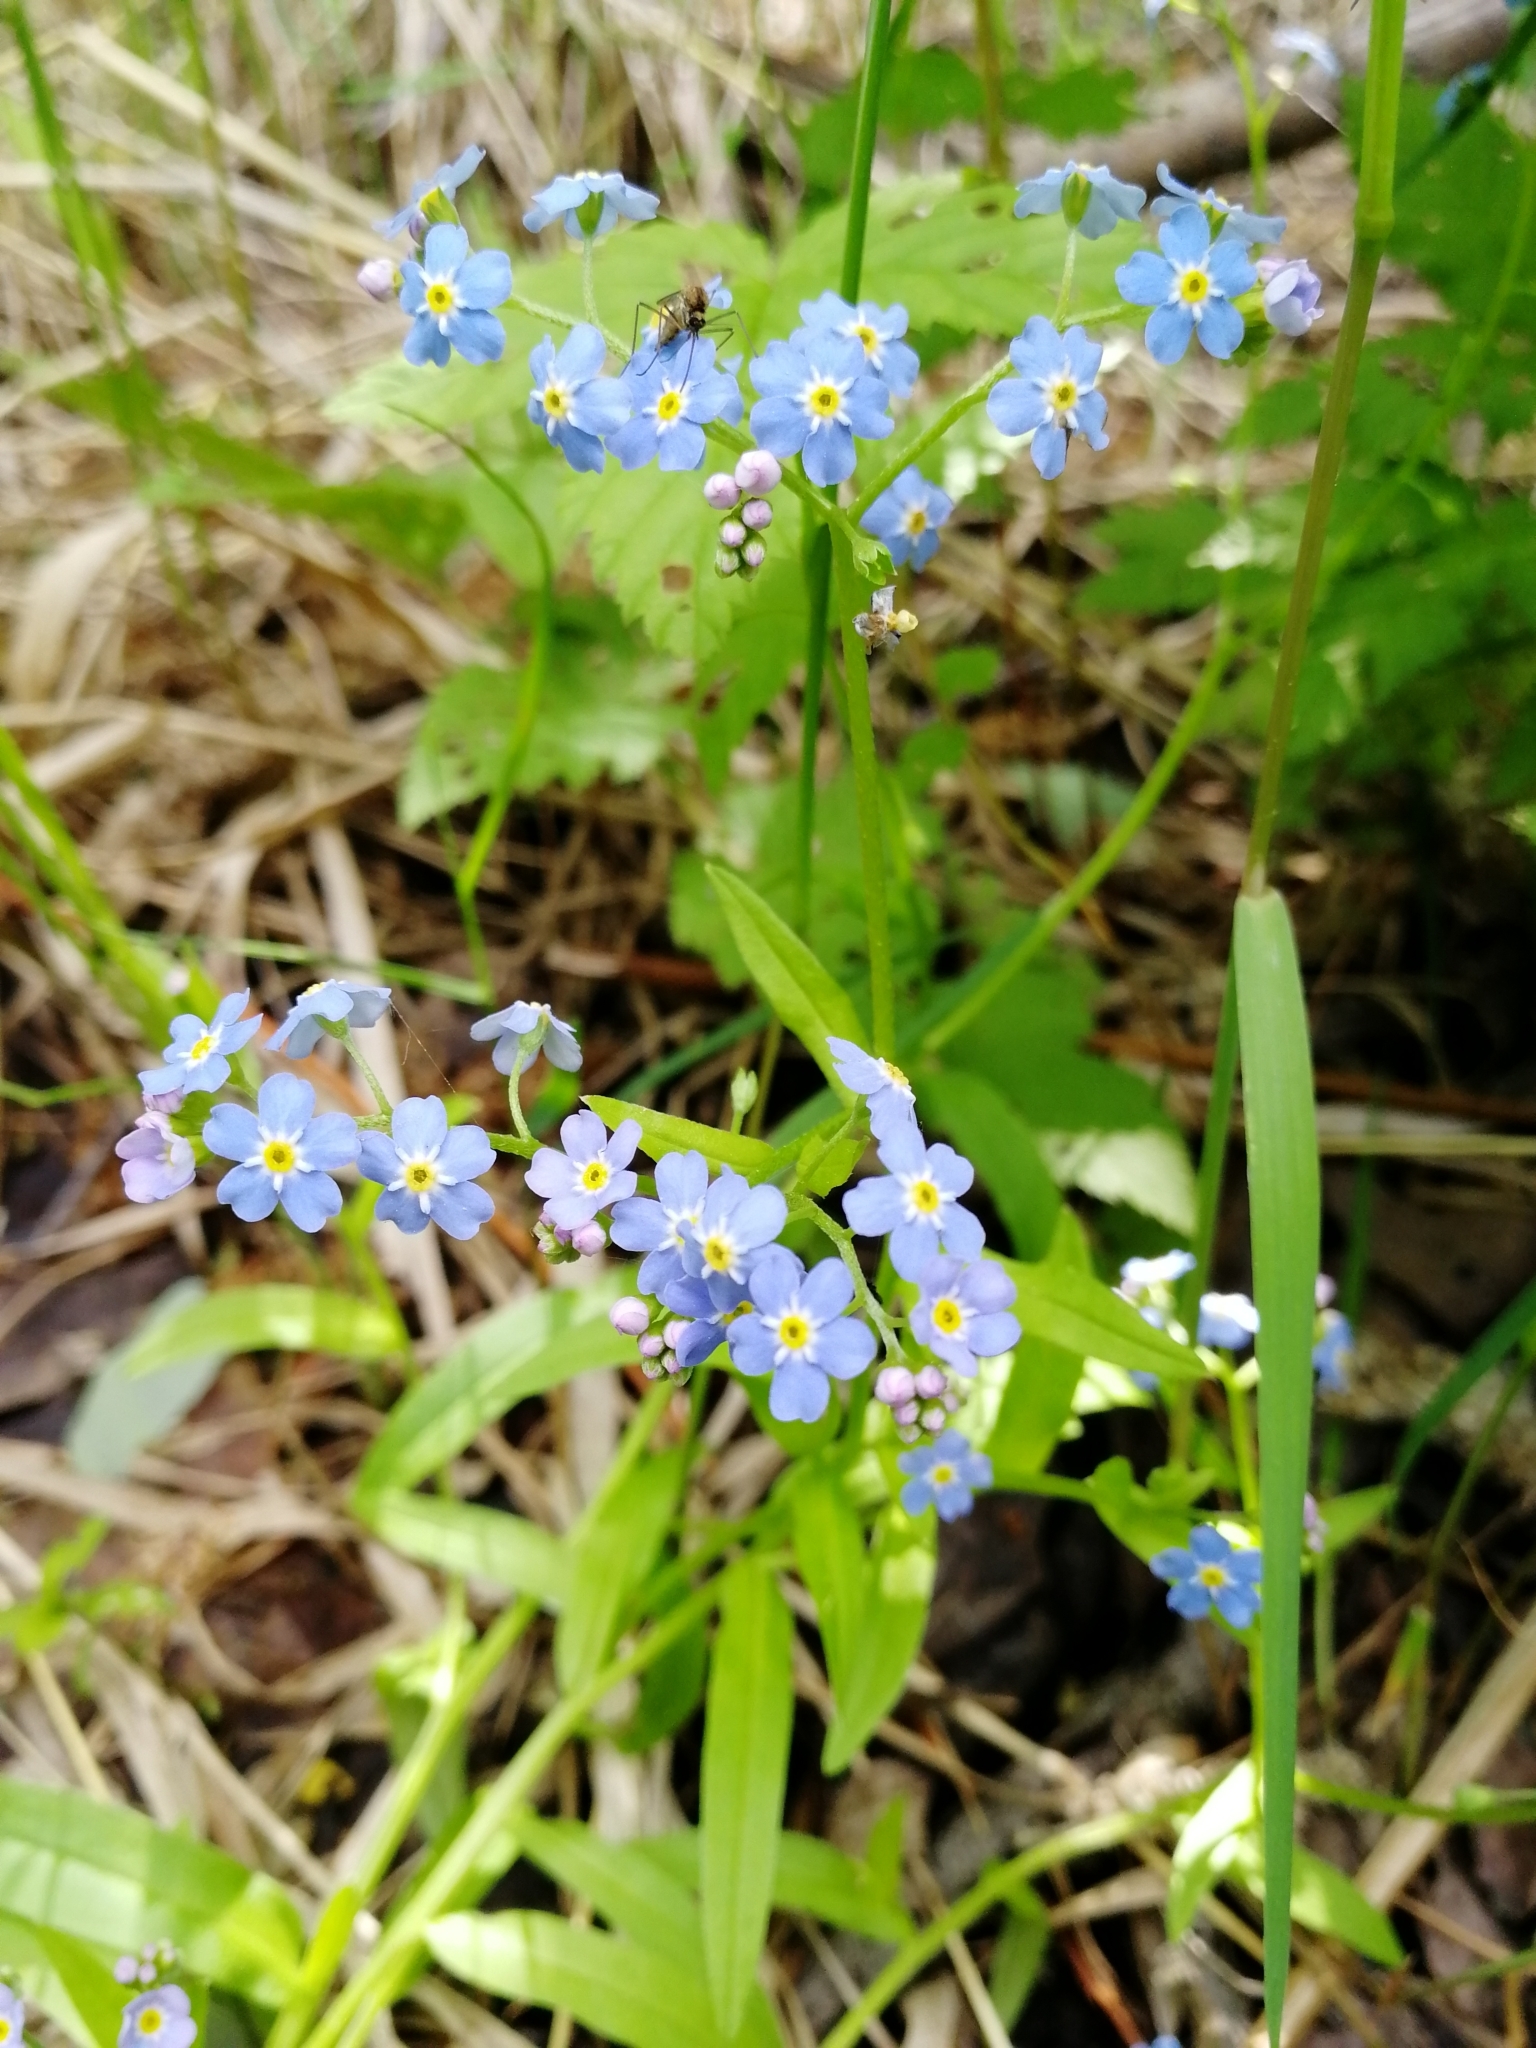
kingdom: Plantae
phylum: Tracheophyta
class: Magnoliopsida
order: Boraginales
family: Boraginaceae
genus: Myosotis
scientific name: Myosotis scorpioides
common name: Water forget-me-not
